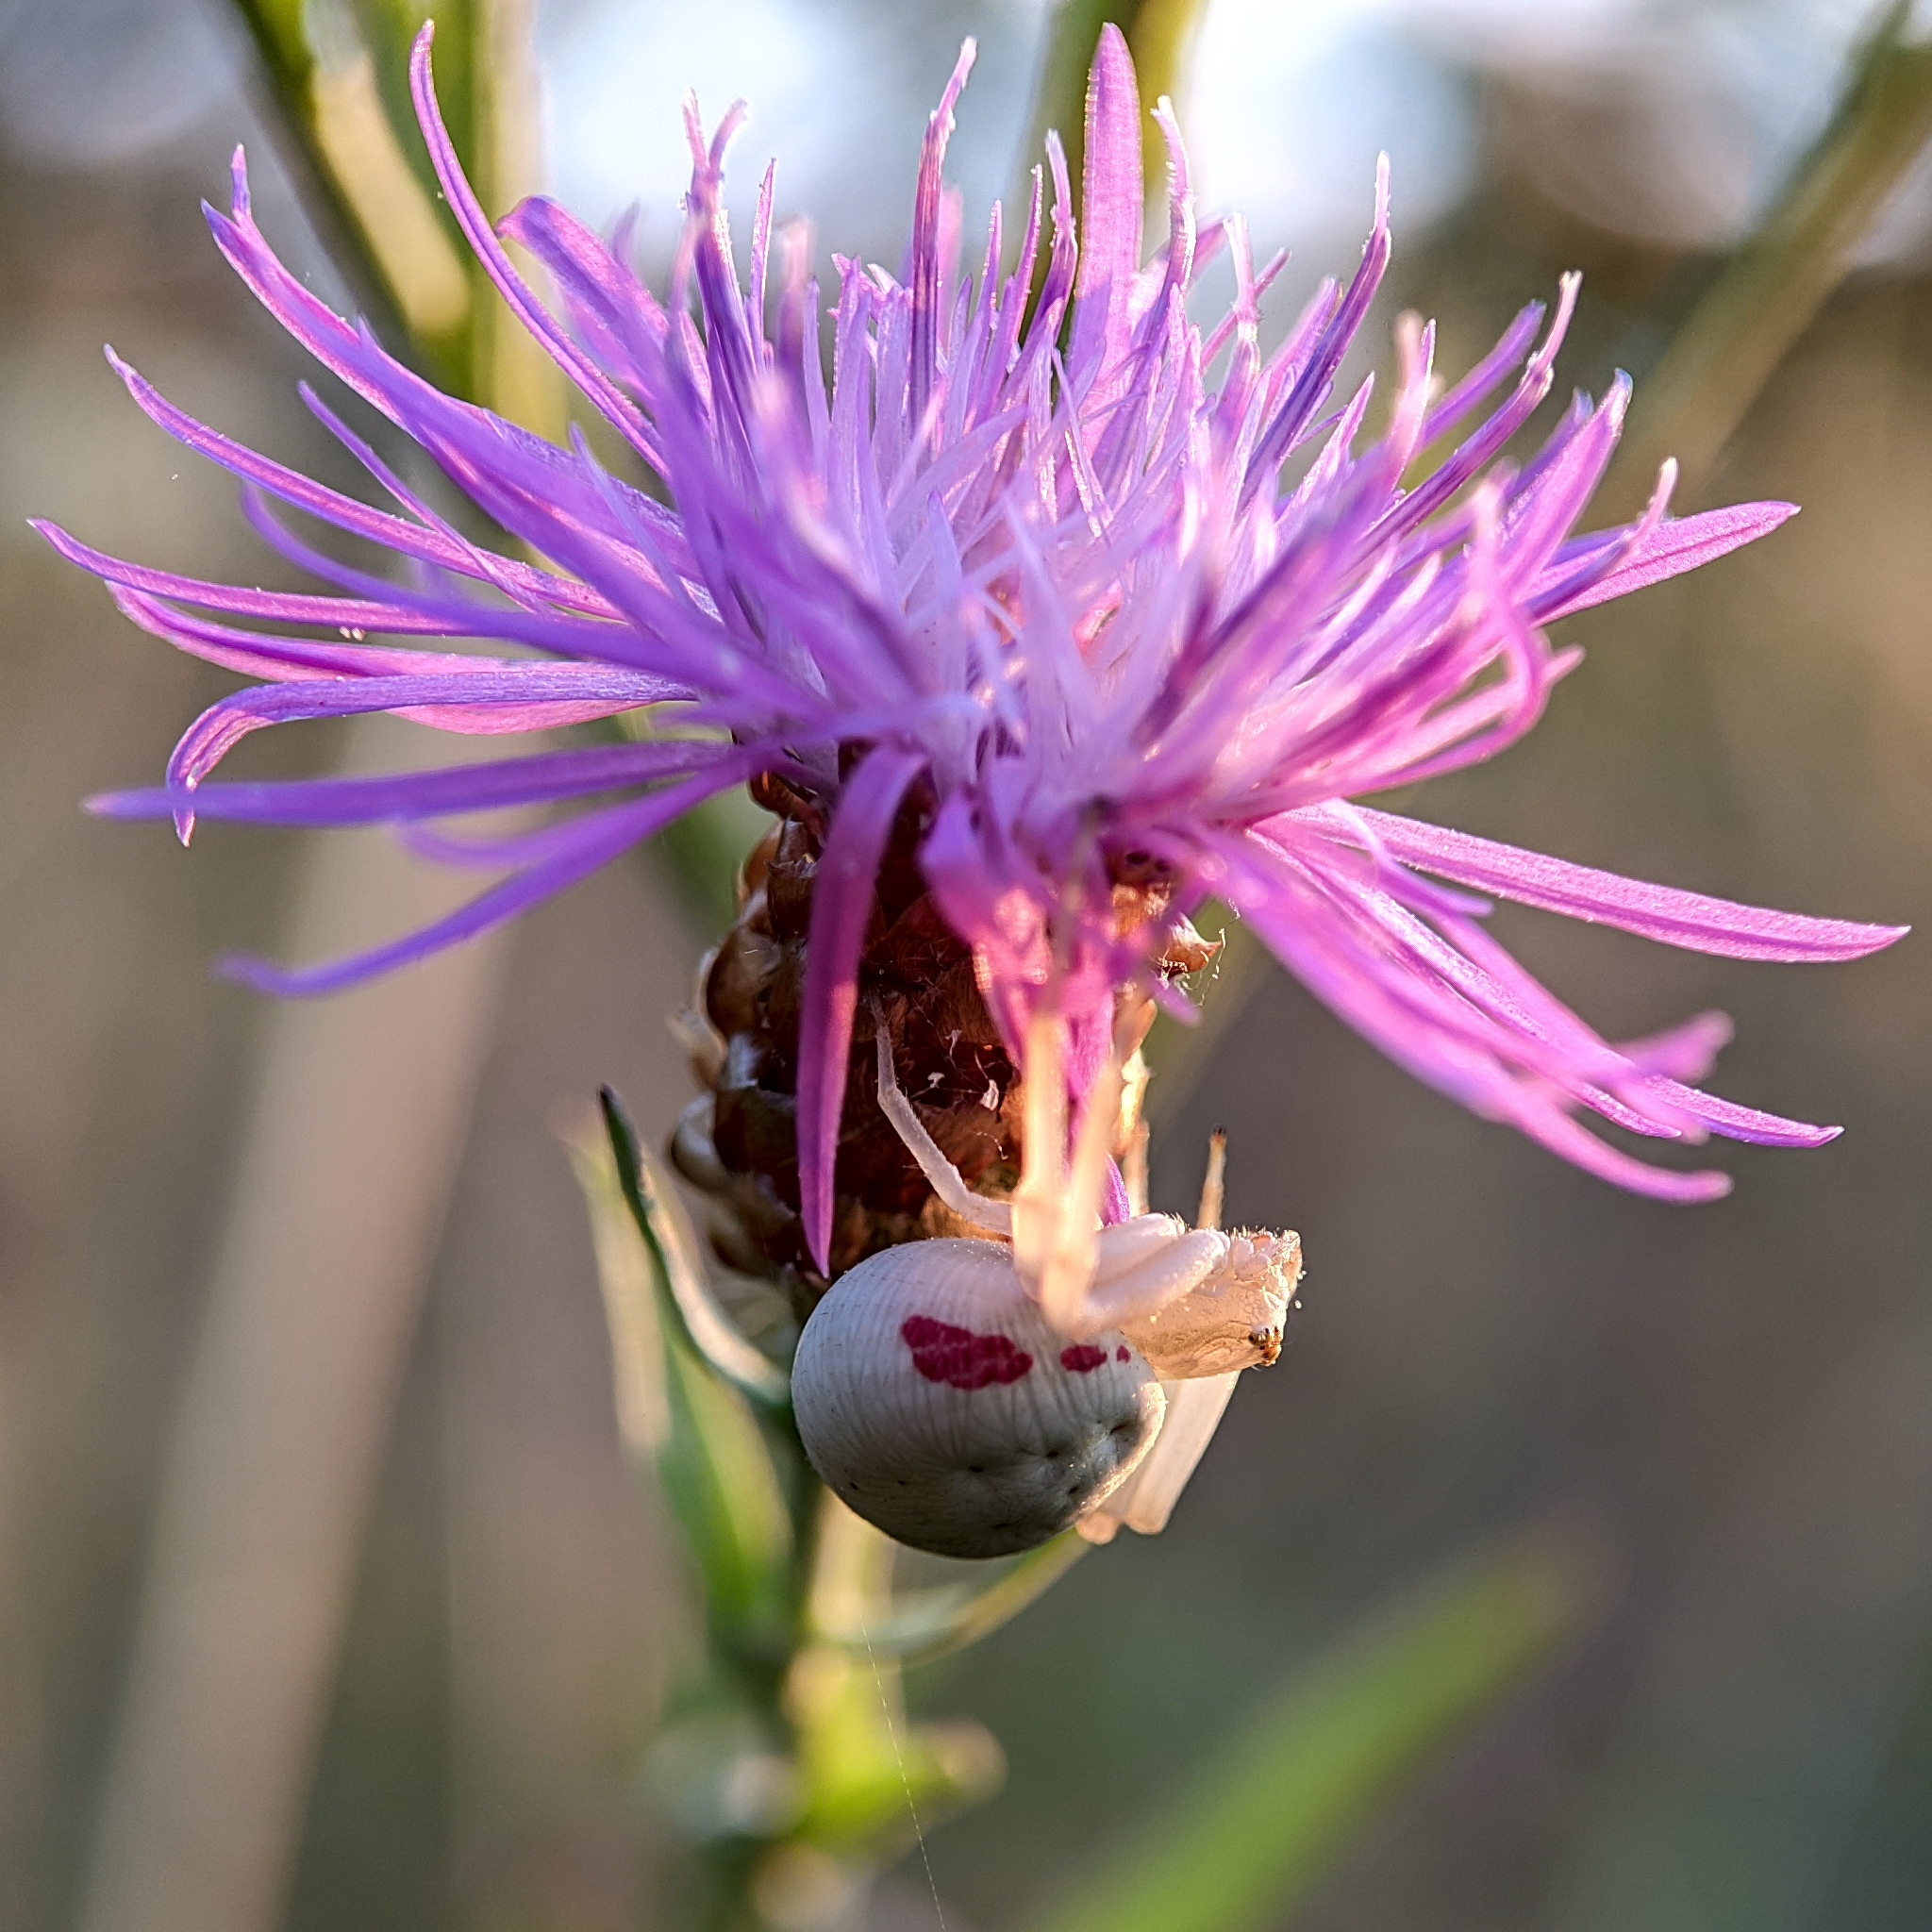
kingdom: Animalia
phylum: Arthropoda
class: Arachnida
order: Araneae
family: Thomisidae
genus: Misumena
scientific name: Misumena vatia
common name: Goldenrod crab spider
